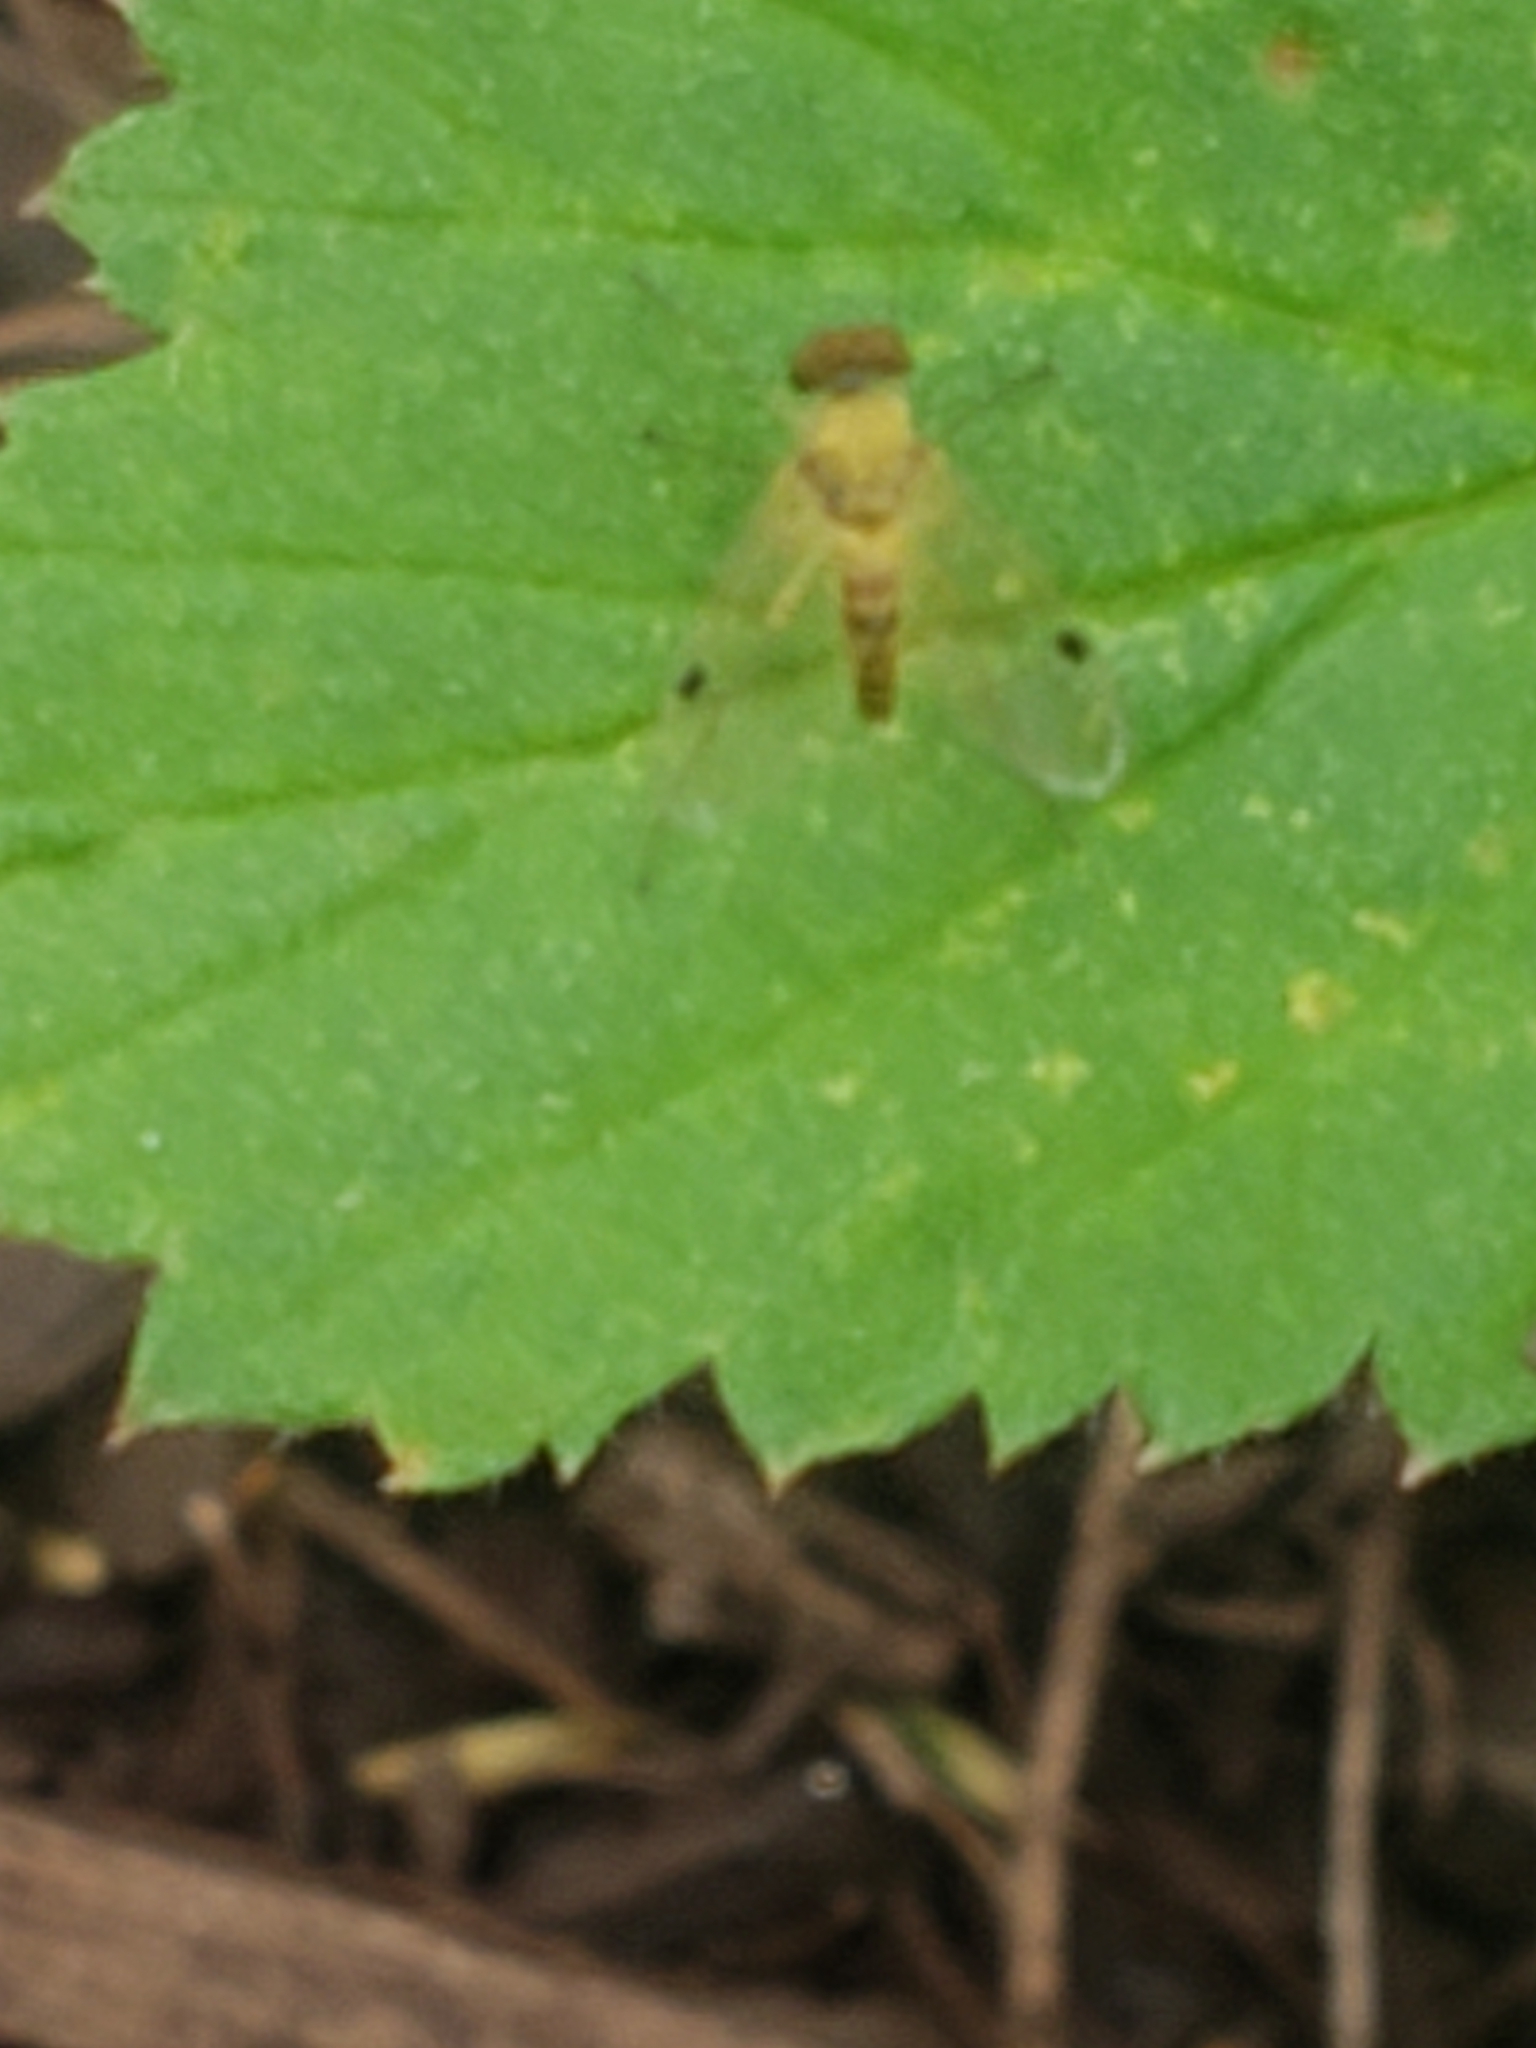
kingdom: Animalia
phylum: Arthropoda
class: Insecta
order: Diptera
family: Rhagionidae
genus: Chrysopilus
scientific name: Chrysopilus modestus
